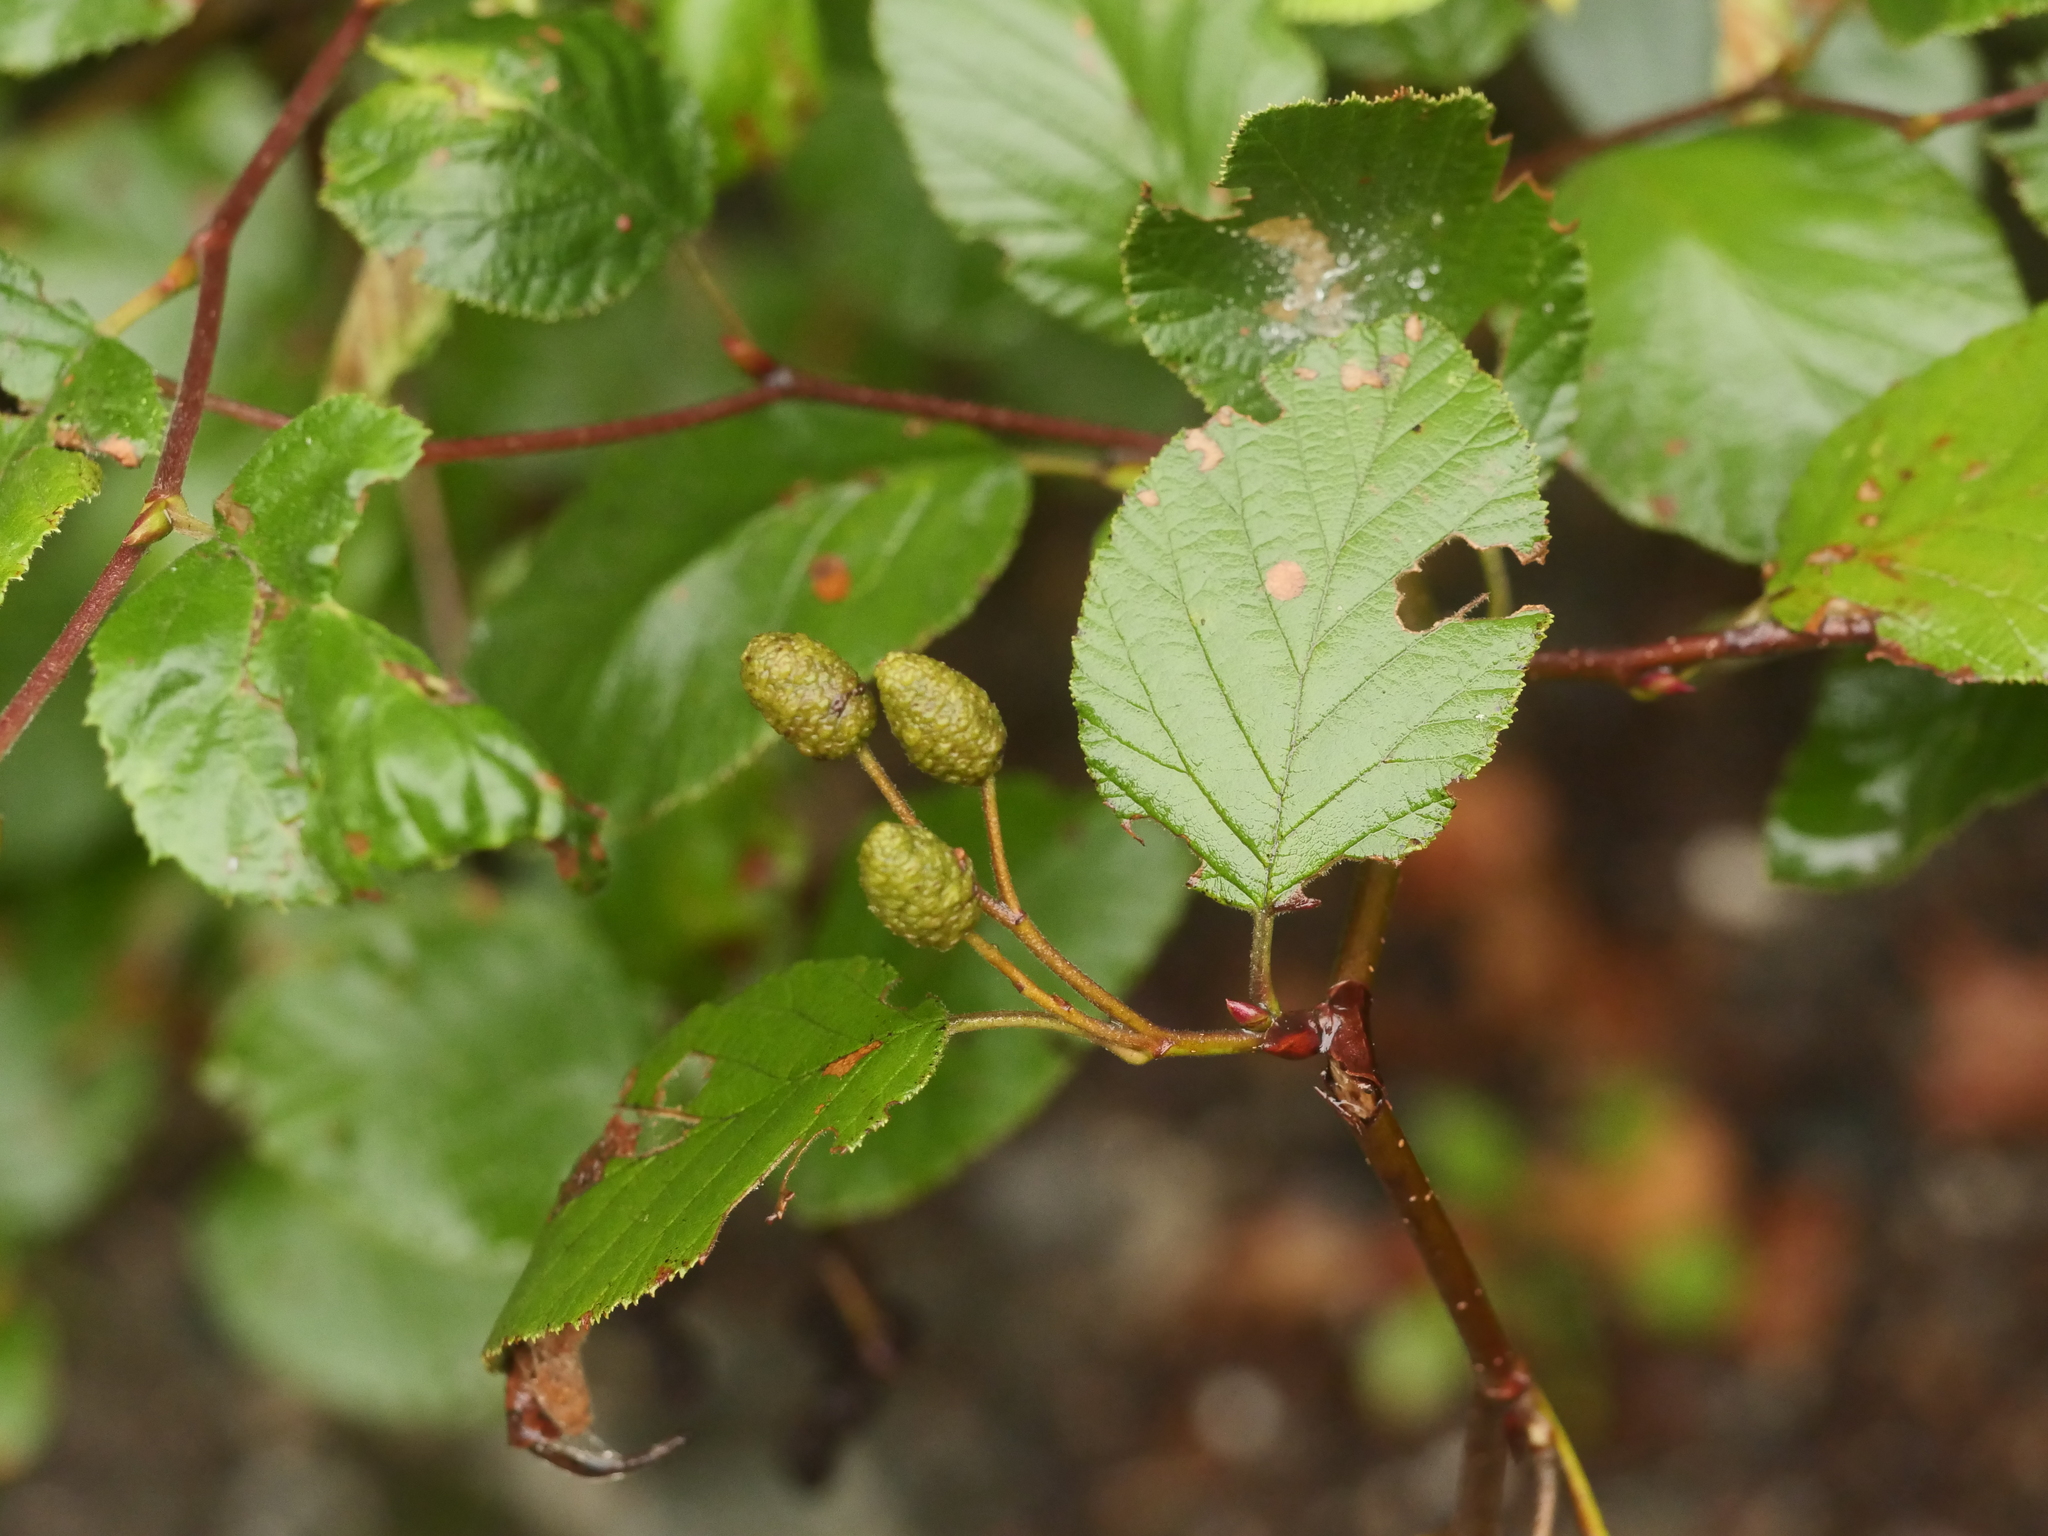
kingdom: Plantae
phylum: Tracheophyta
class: Magnoliopsida
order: Fagales
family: Betulaceae
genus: Alnus
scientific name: Alnus alnobetula
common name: Green alder
